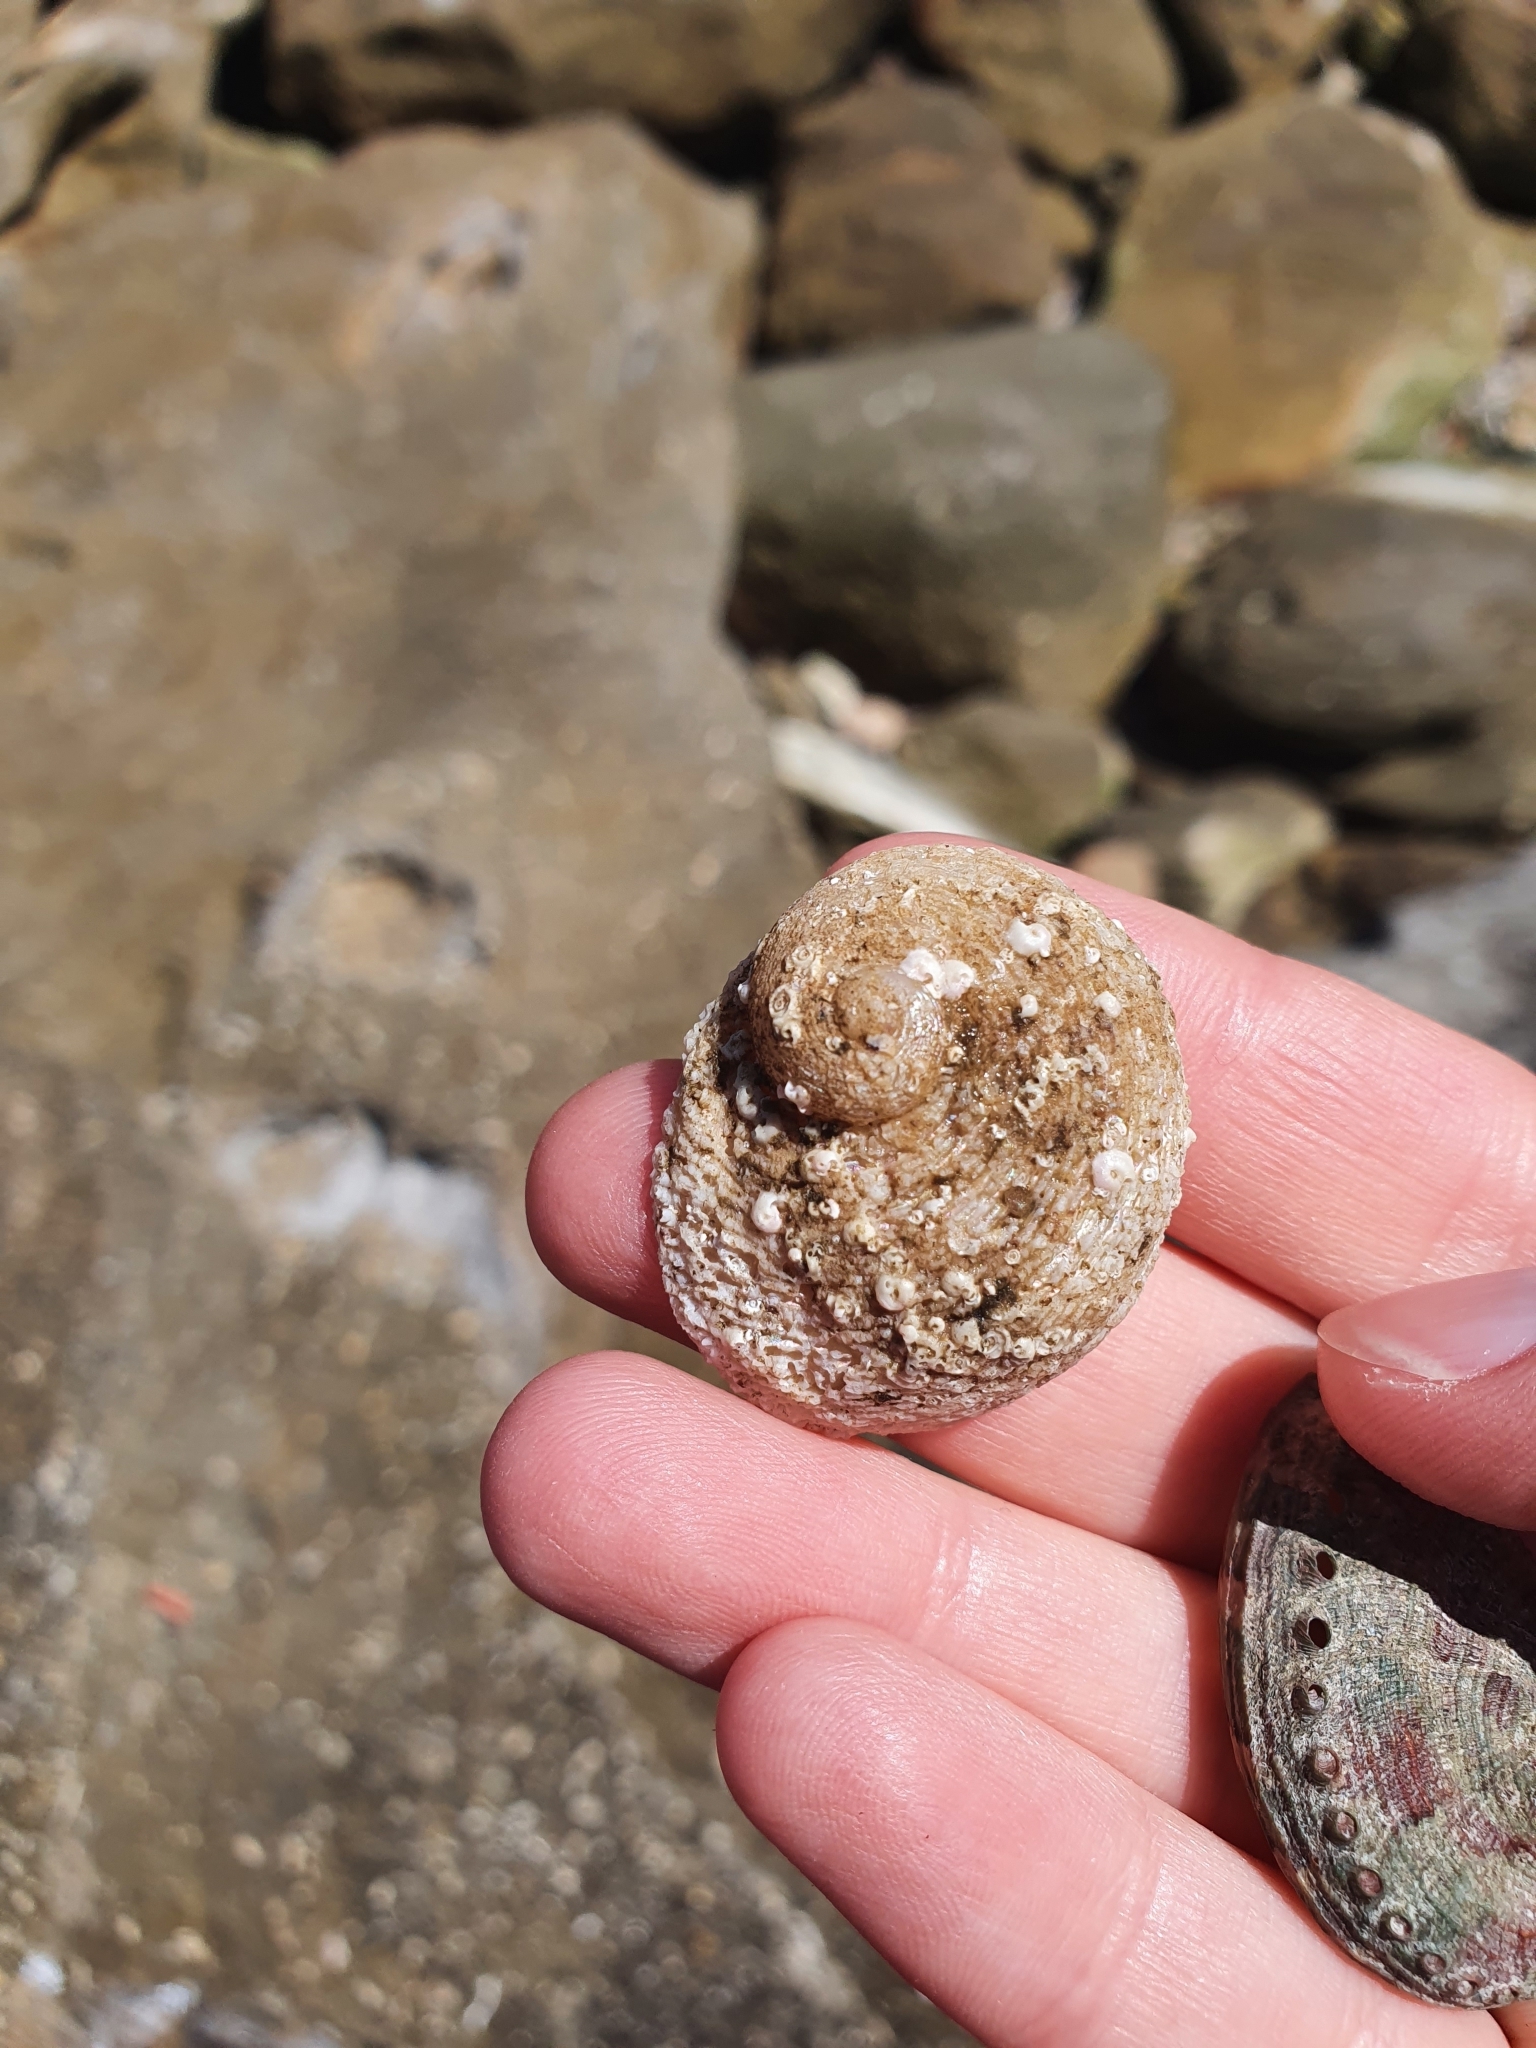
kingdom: Animalia
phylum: Mollusca
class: Gastropoda
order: Seguenziida
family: Chilodontaidae
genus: Granata
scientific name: Granata imbricata
